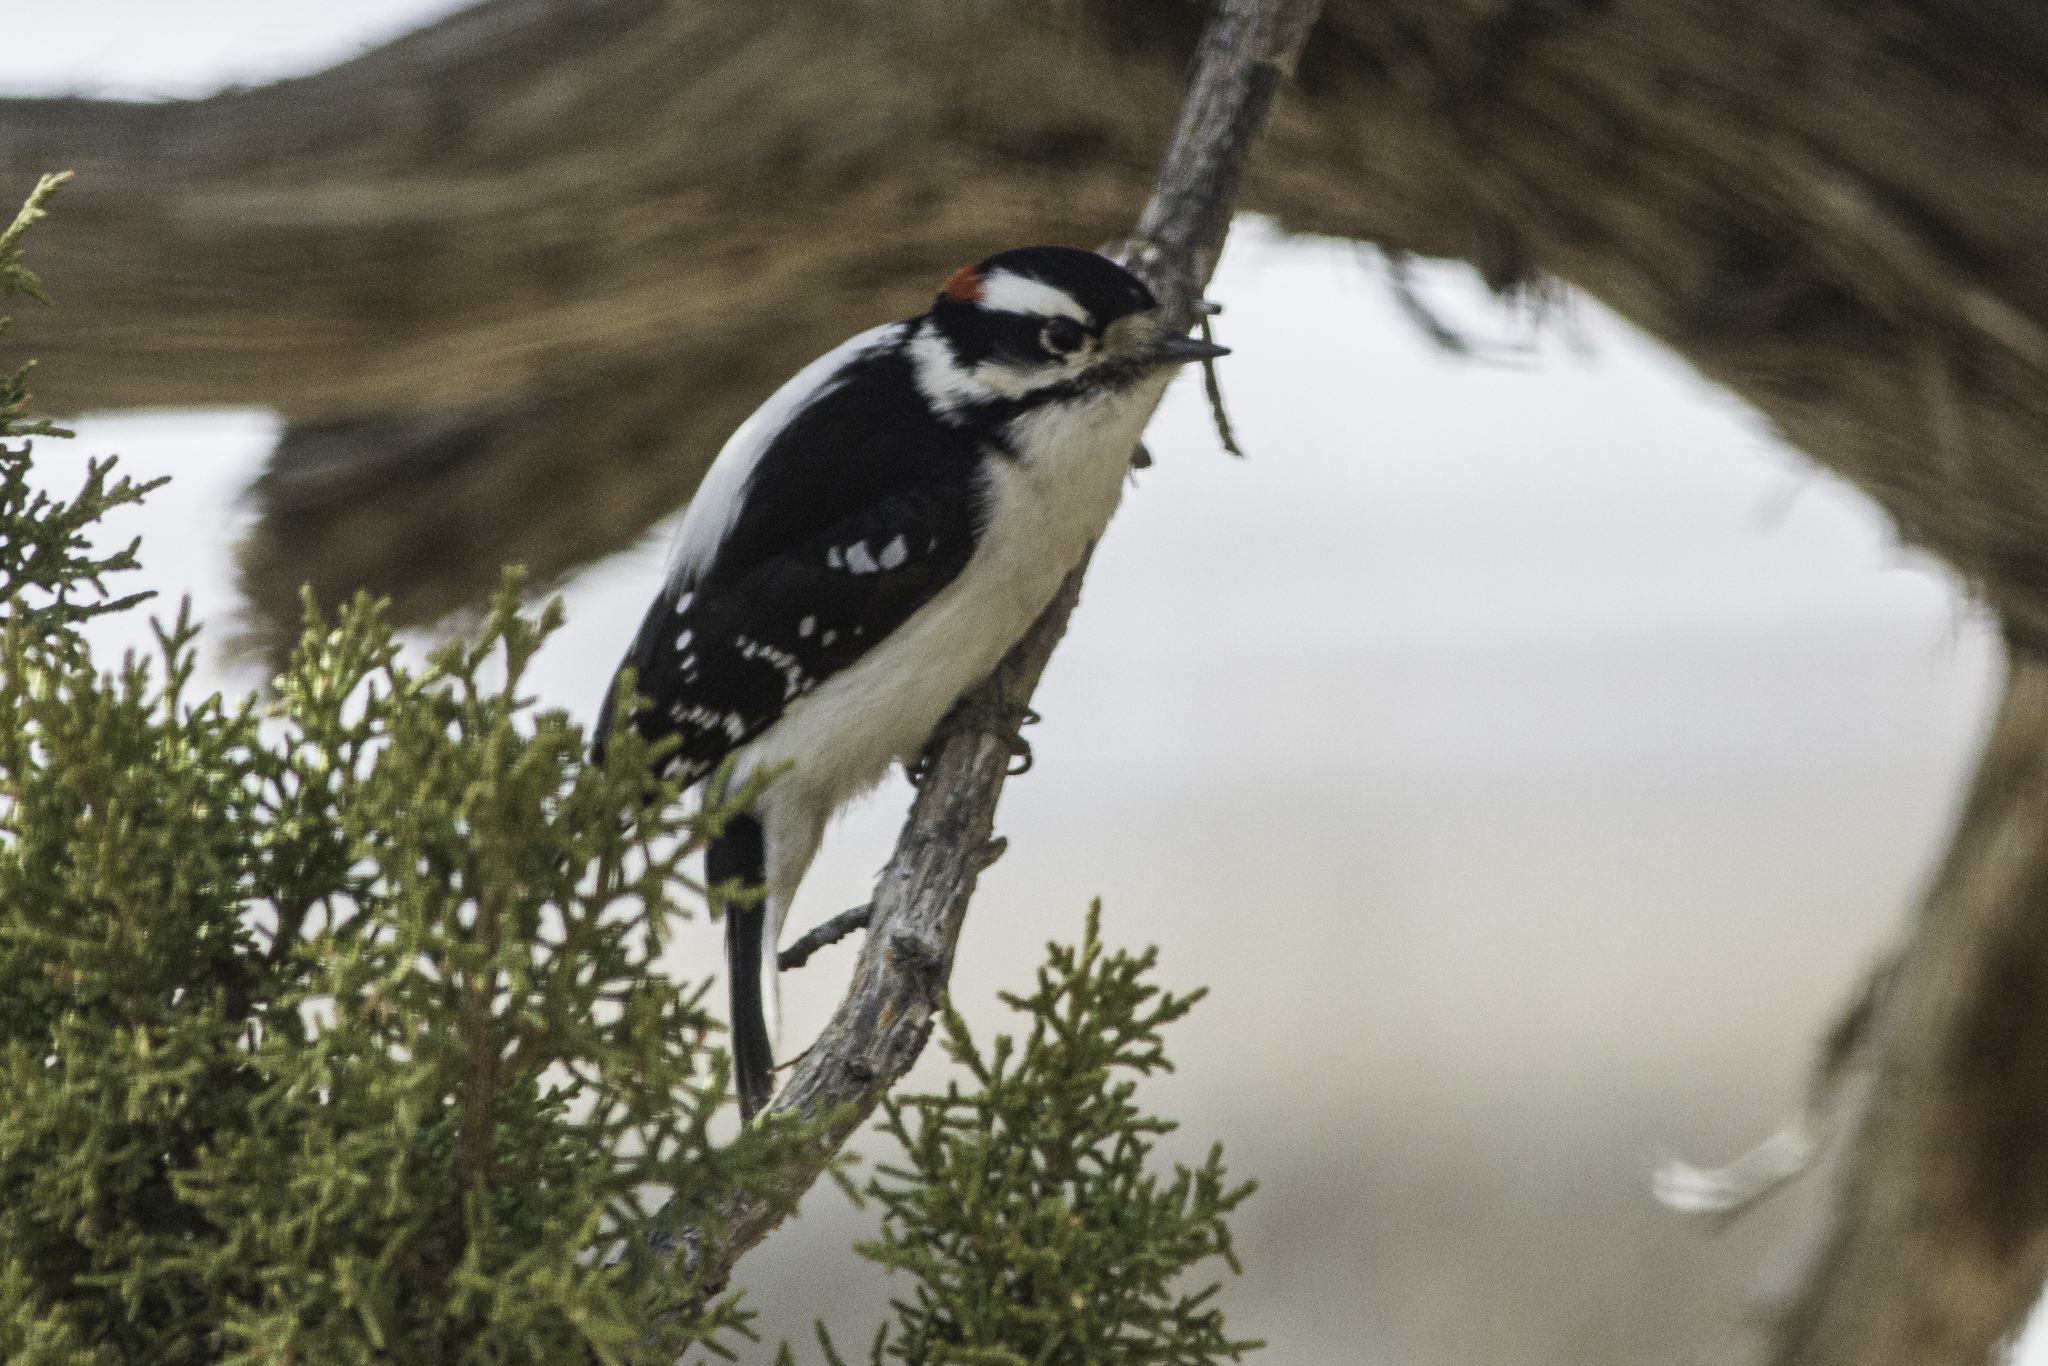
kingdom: Animalia
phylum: Chordata
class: Aves
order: Piciformes
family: Picidae
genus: Dryobates
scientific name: Dryobates pubescens
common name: Downy woodpecker
